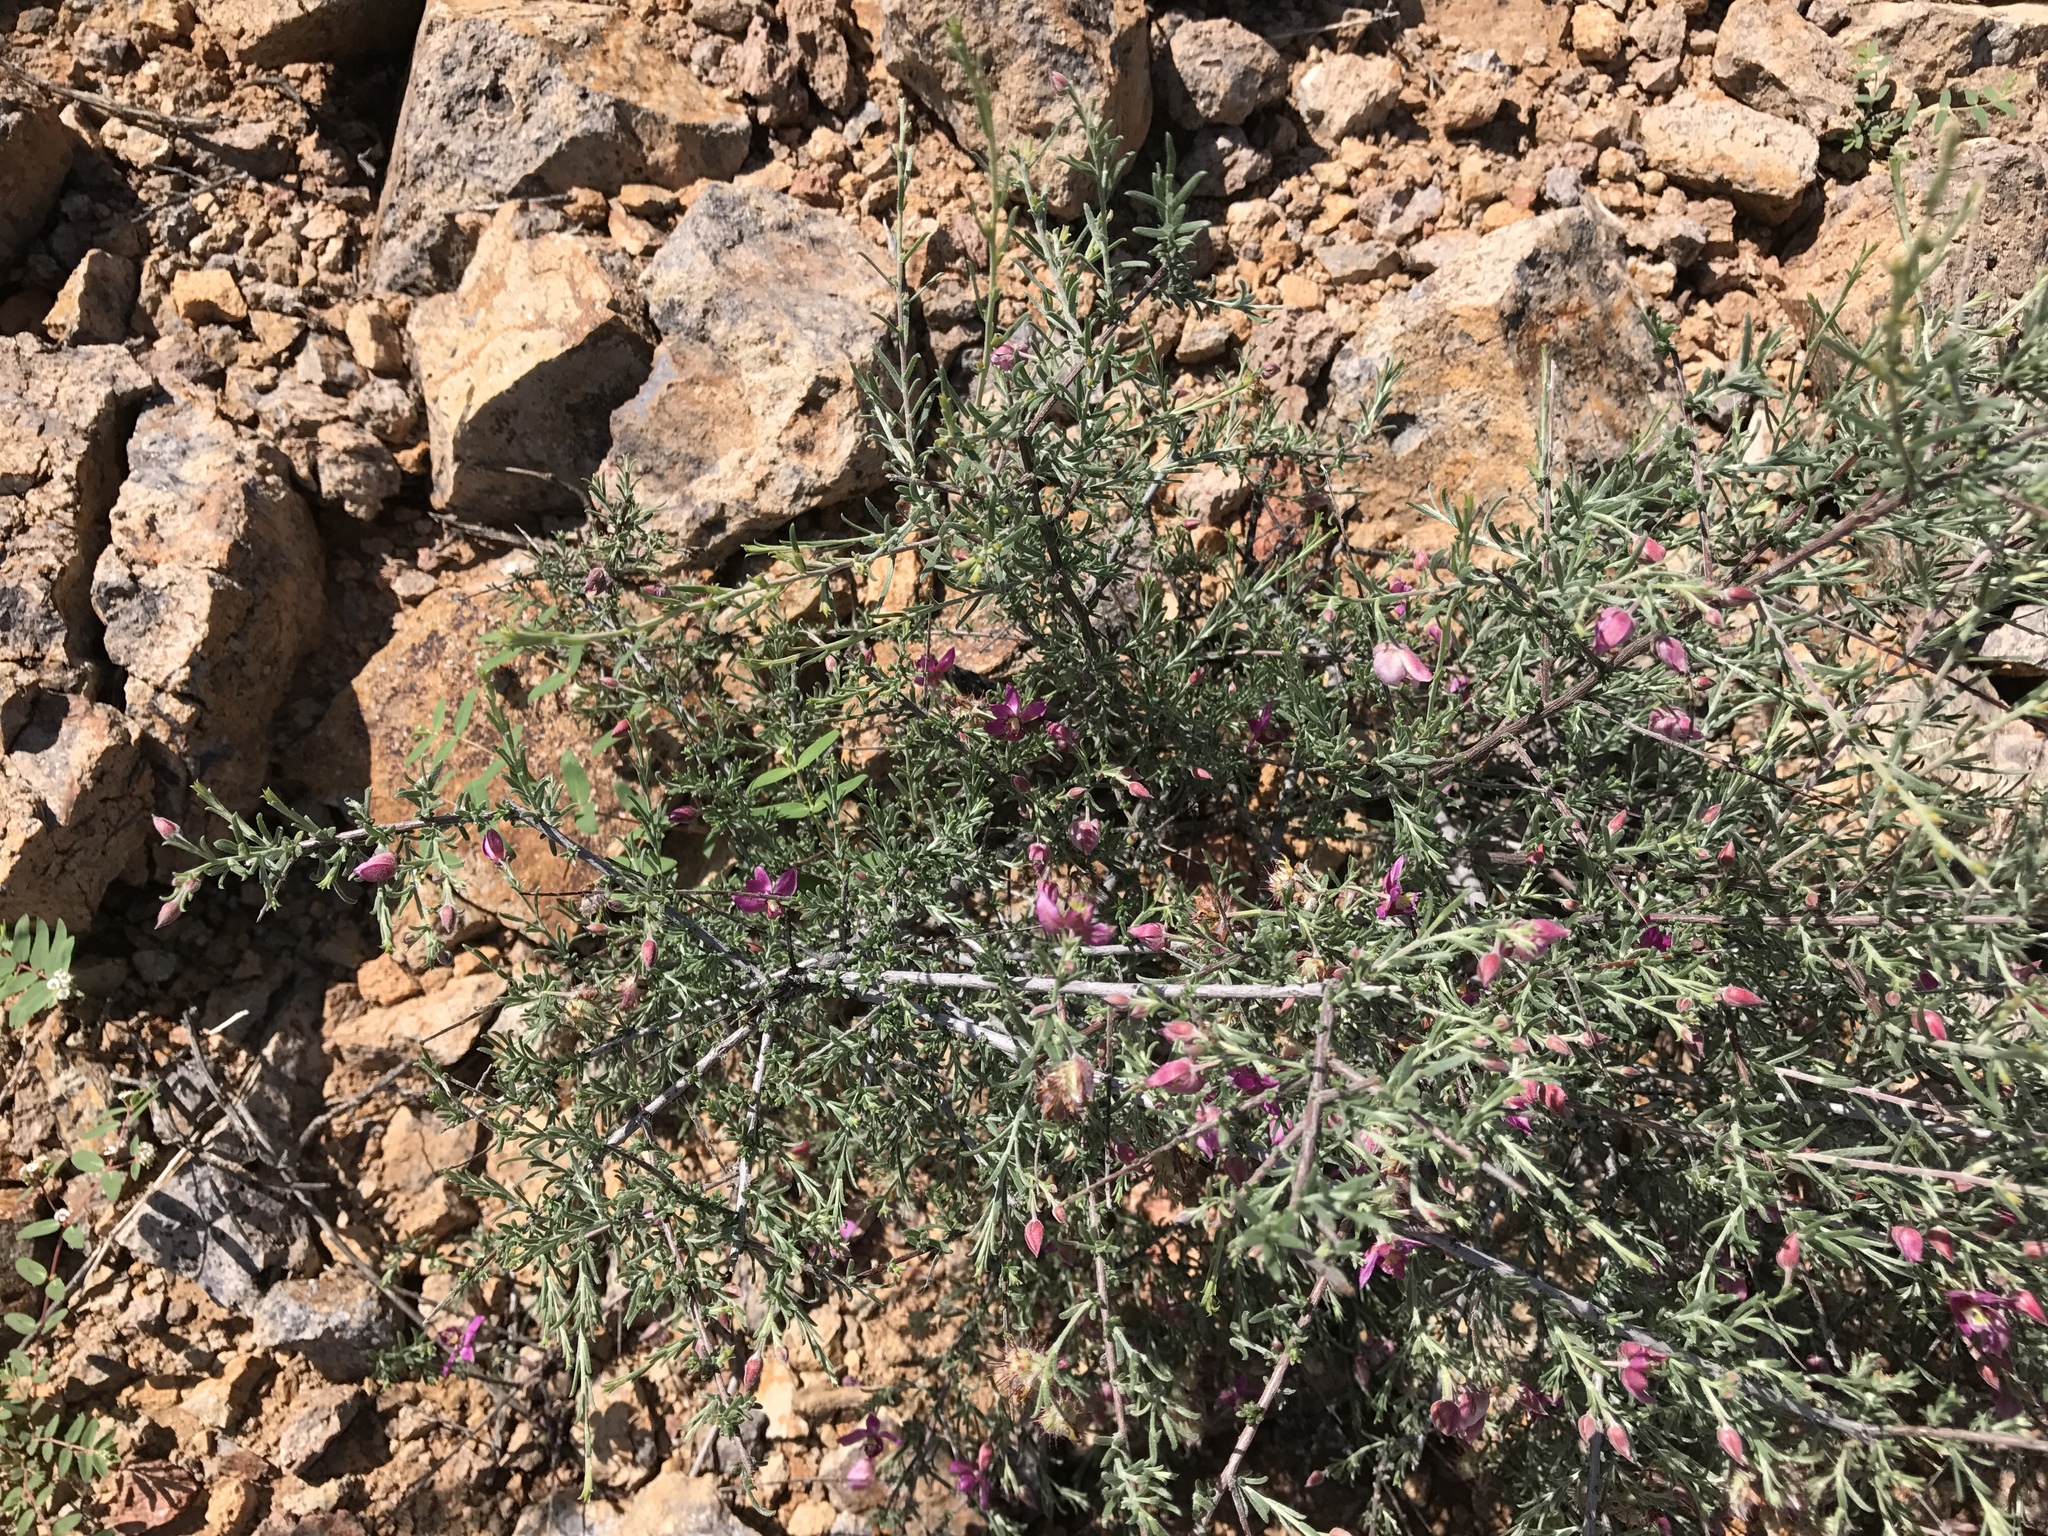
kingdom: Plantae
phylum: Tracheophyta
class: Magnoliopsida
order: Zygophyllales
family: Krameriaceae
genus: Krameria
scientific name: Krameria erecta
